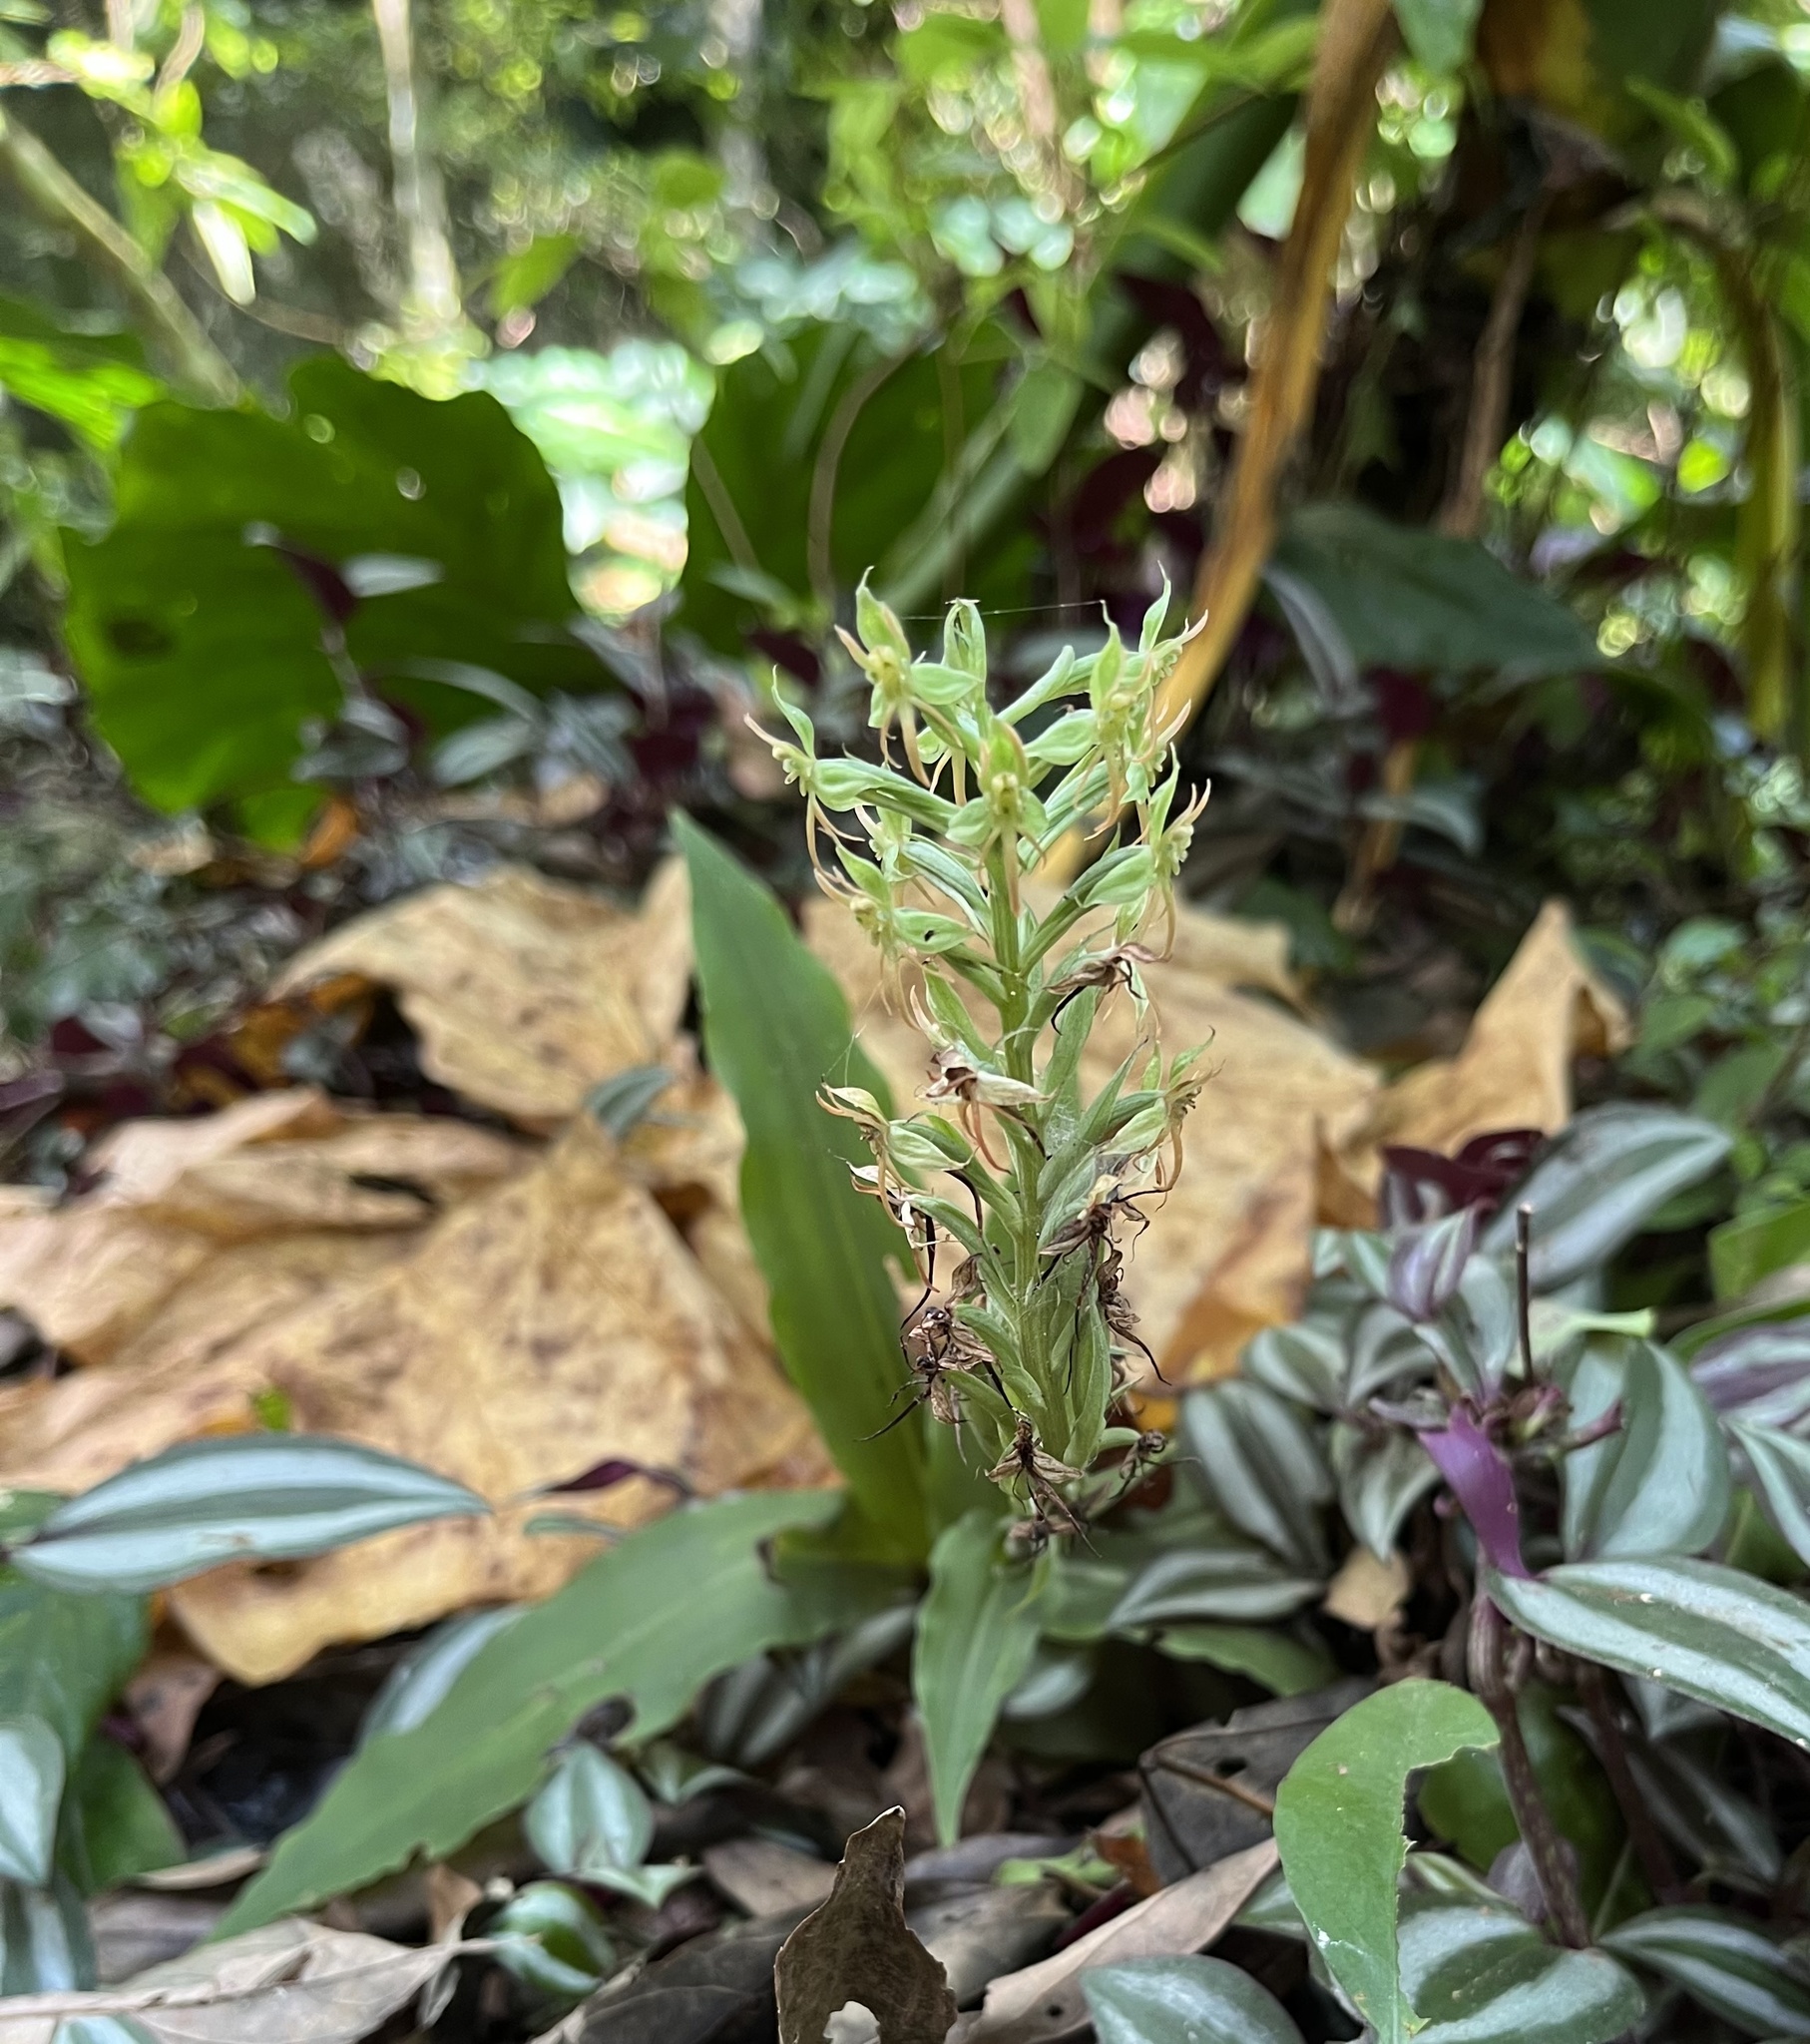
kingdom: Plantae
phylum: Tracheophyta
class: Liliopsida
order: Asparagales
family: Orchidaceae
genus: Habenaria
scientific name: Habenaria stenopetala
